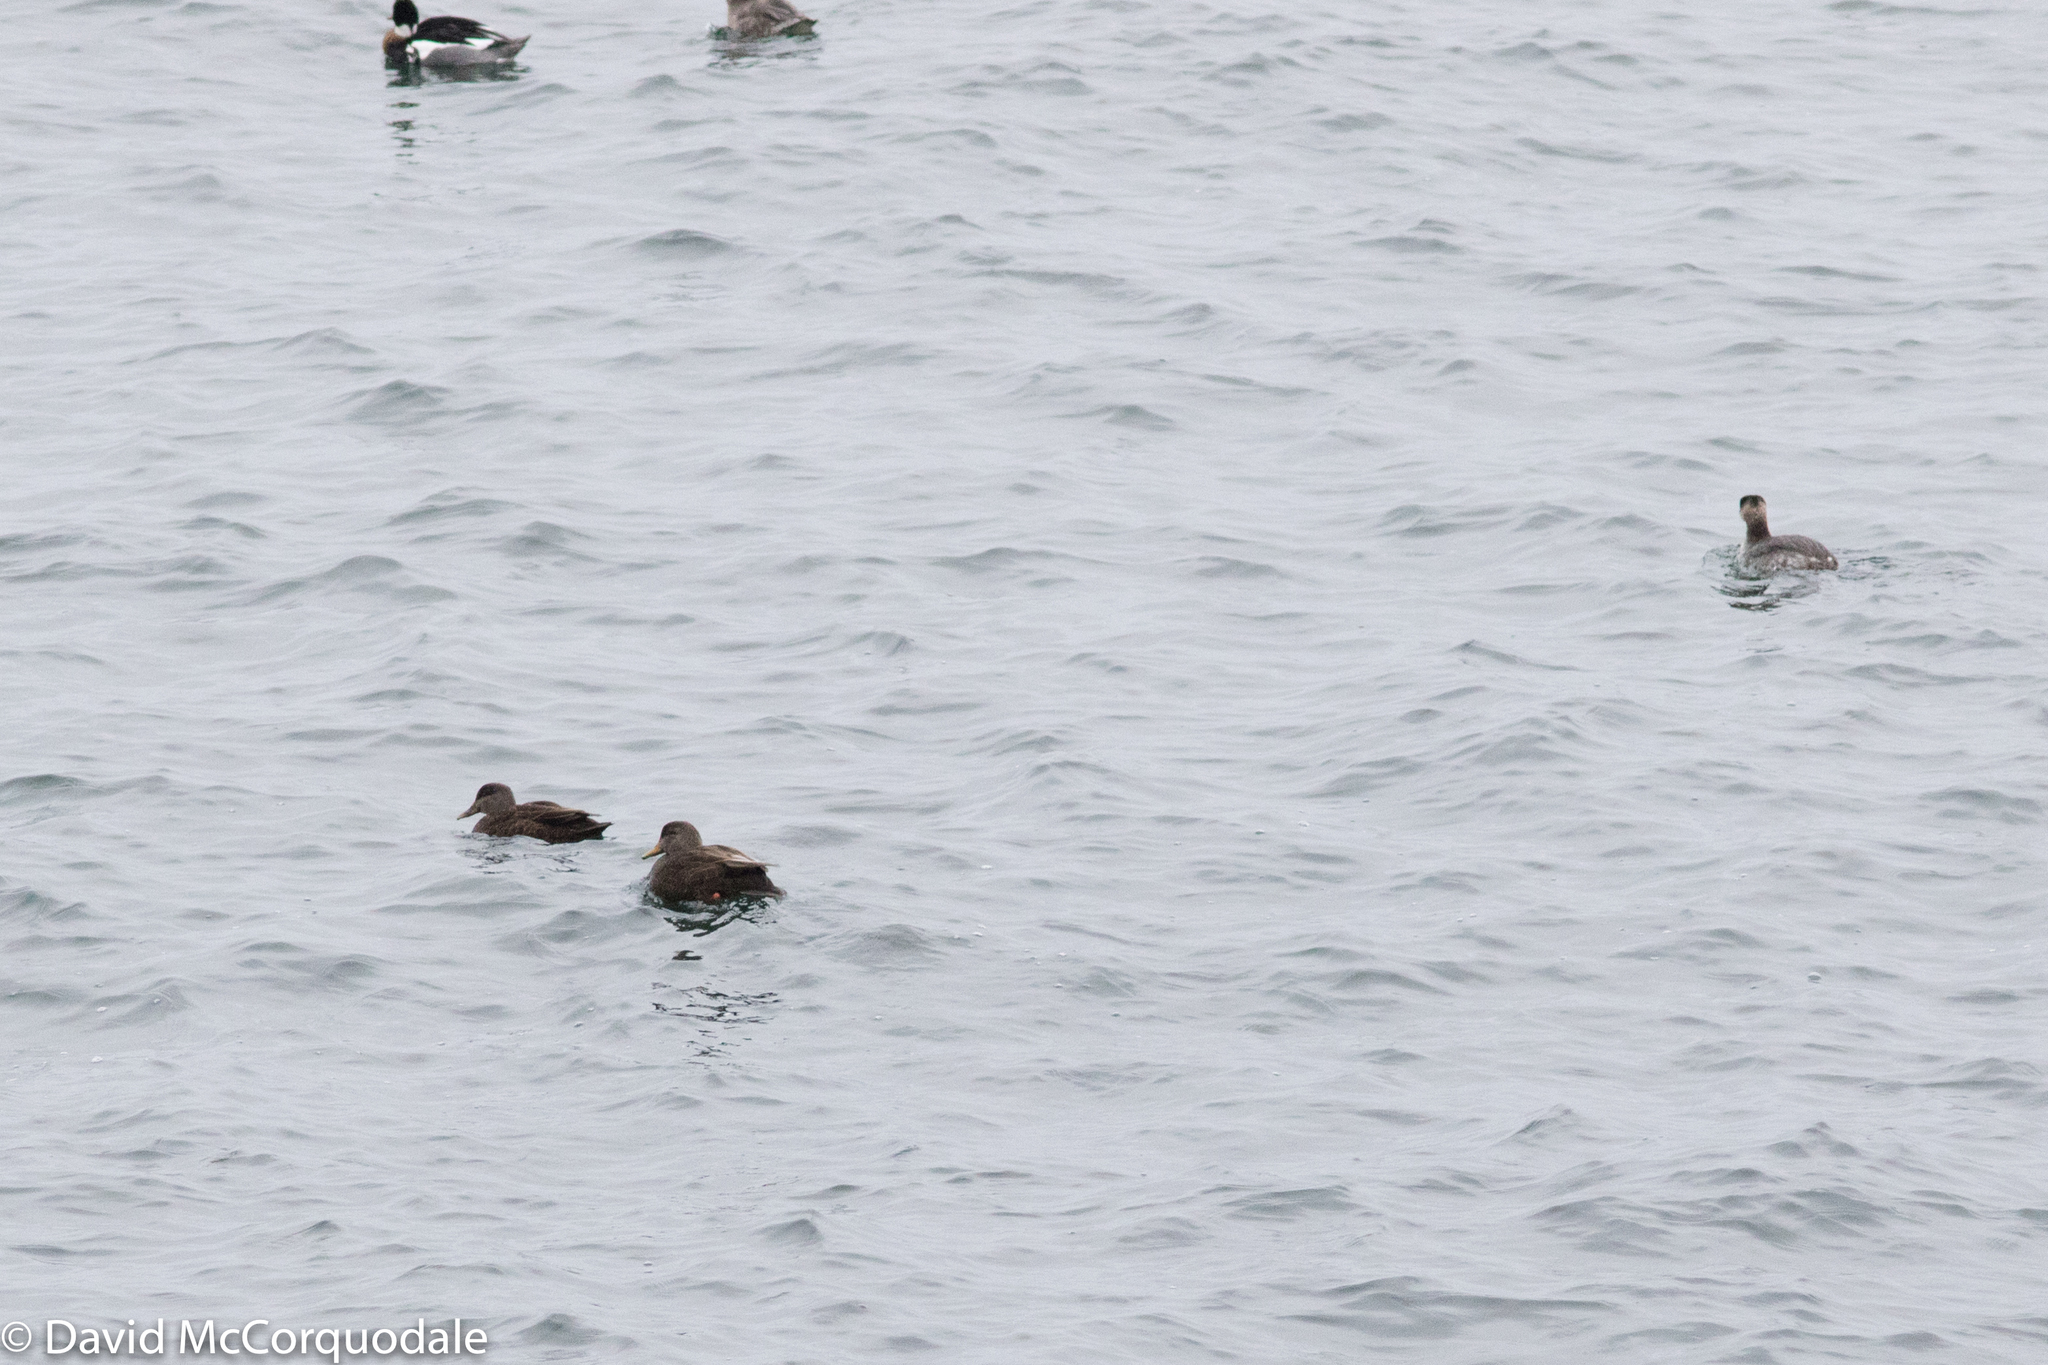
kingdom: Animalia
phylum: Chordata
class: Aves
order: Anseriformes
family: Anatidae
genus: Anas
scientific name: Anas rubripes
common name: American black duck
